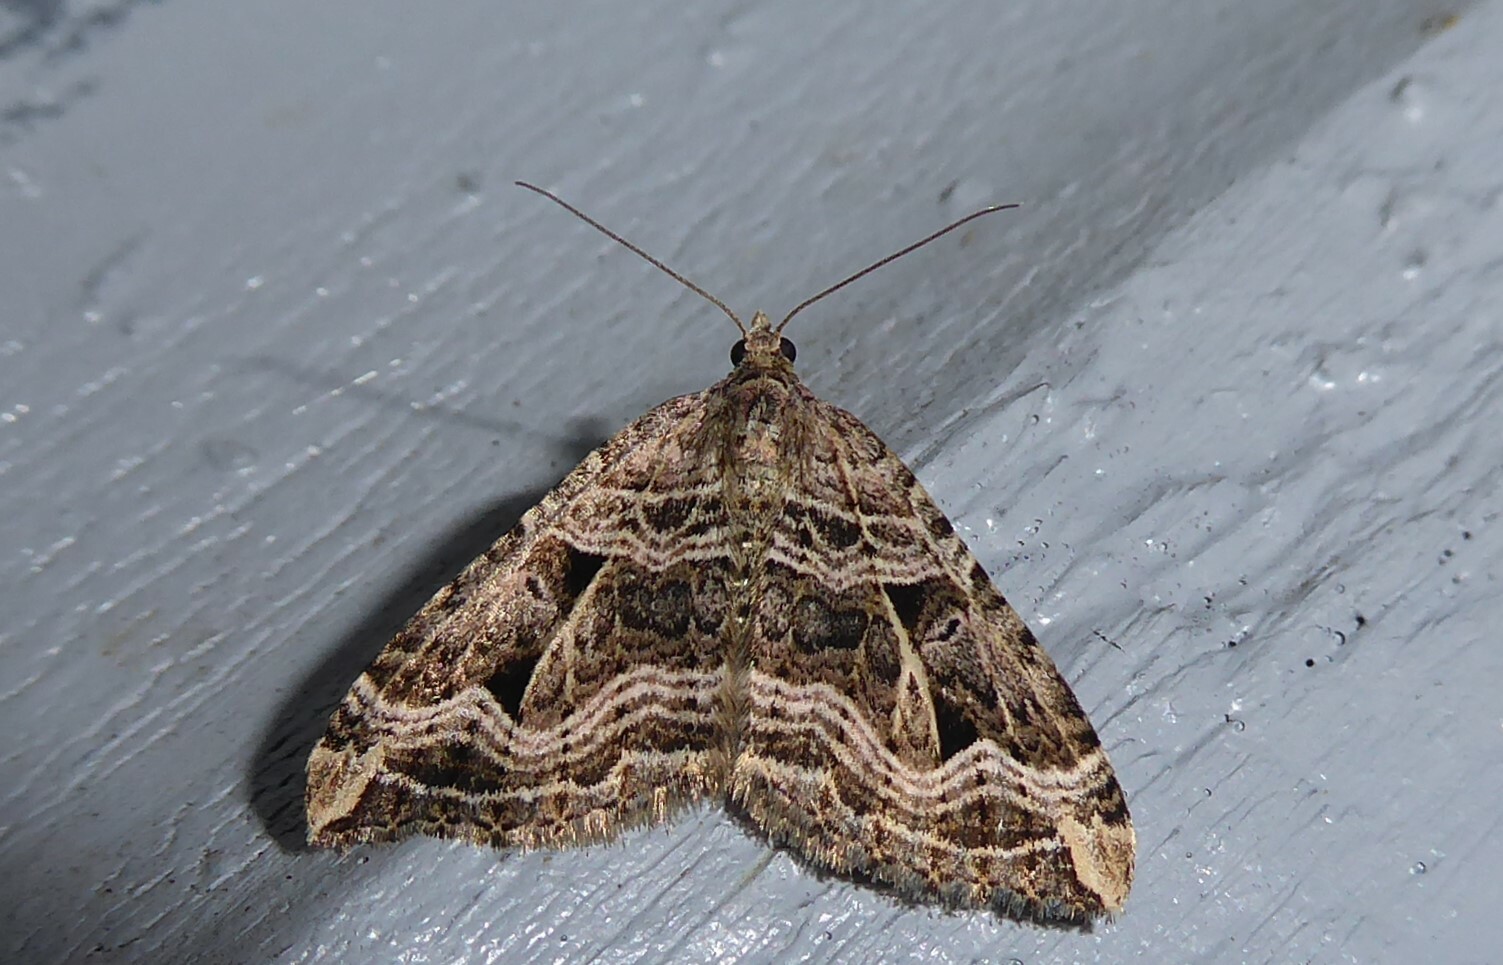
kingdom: Animalia
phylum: Arthropoda
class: Insecta
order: Lepidoptera
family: Geometridae
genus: Xanthorhoe
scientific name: Xanthorhoe semifissata
